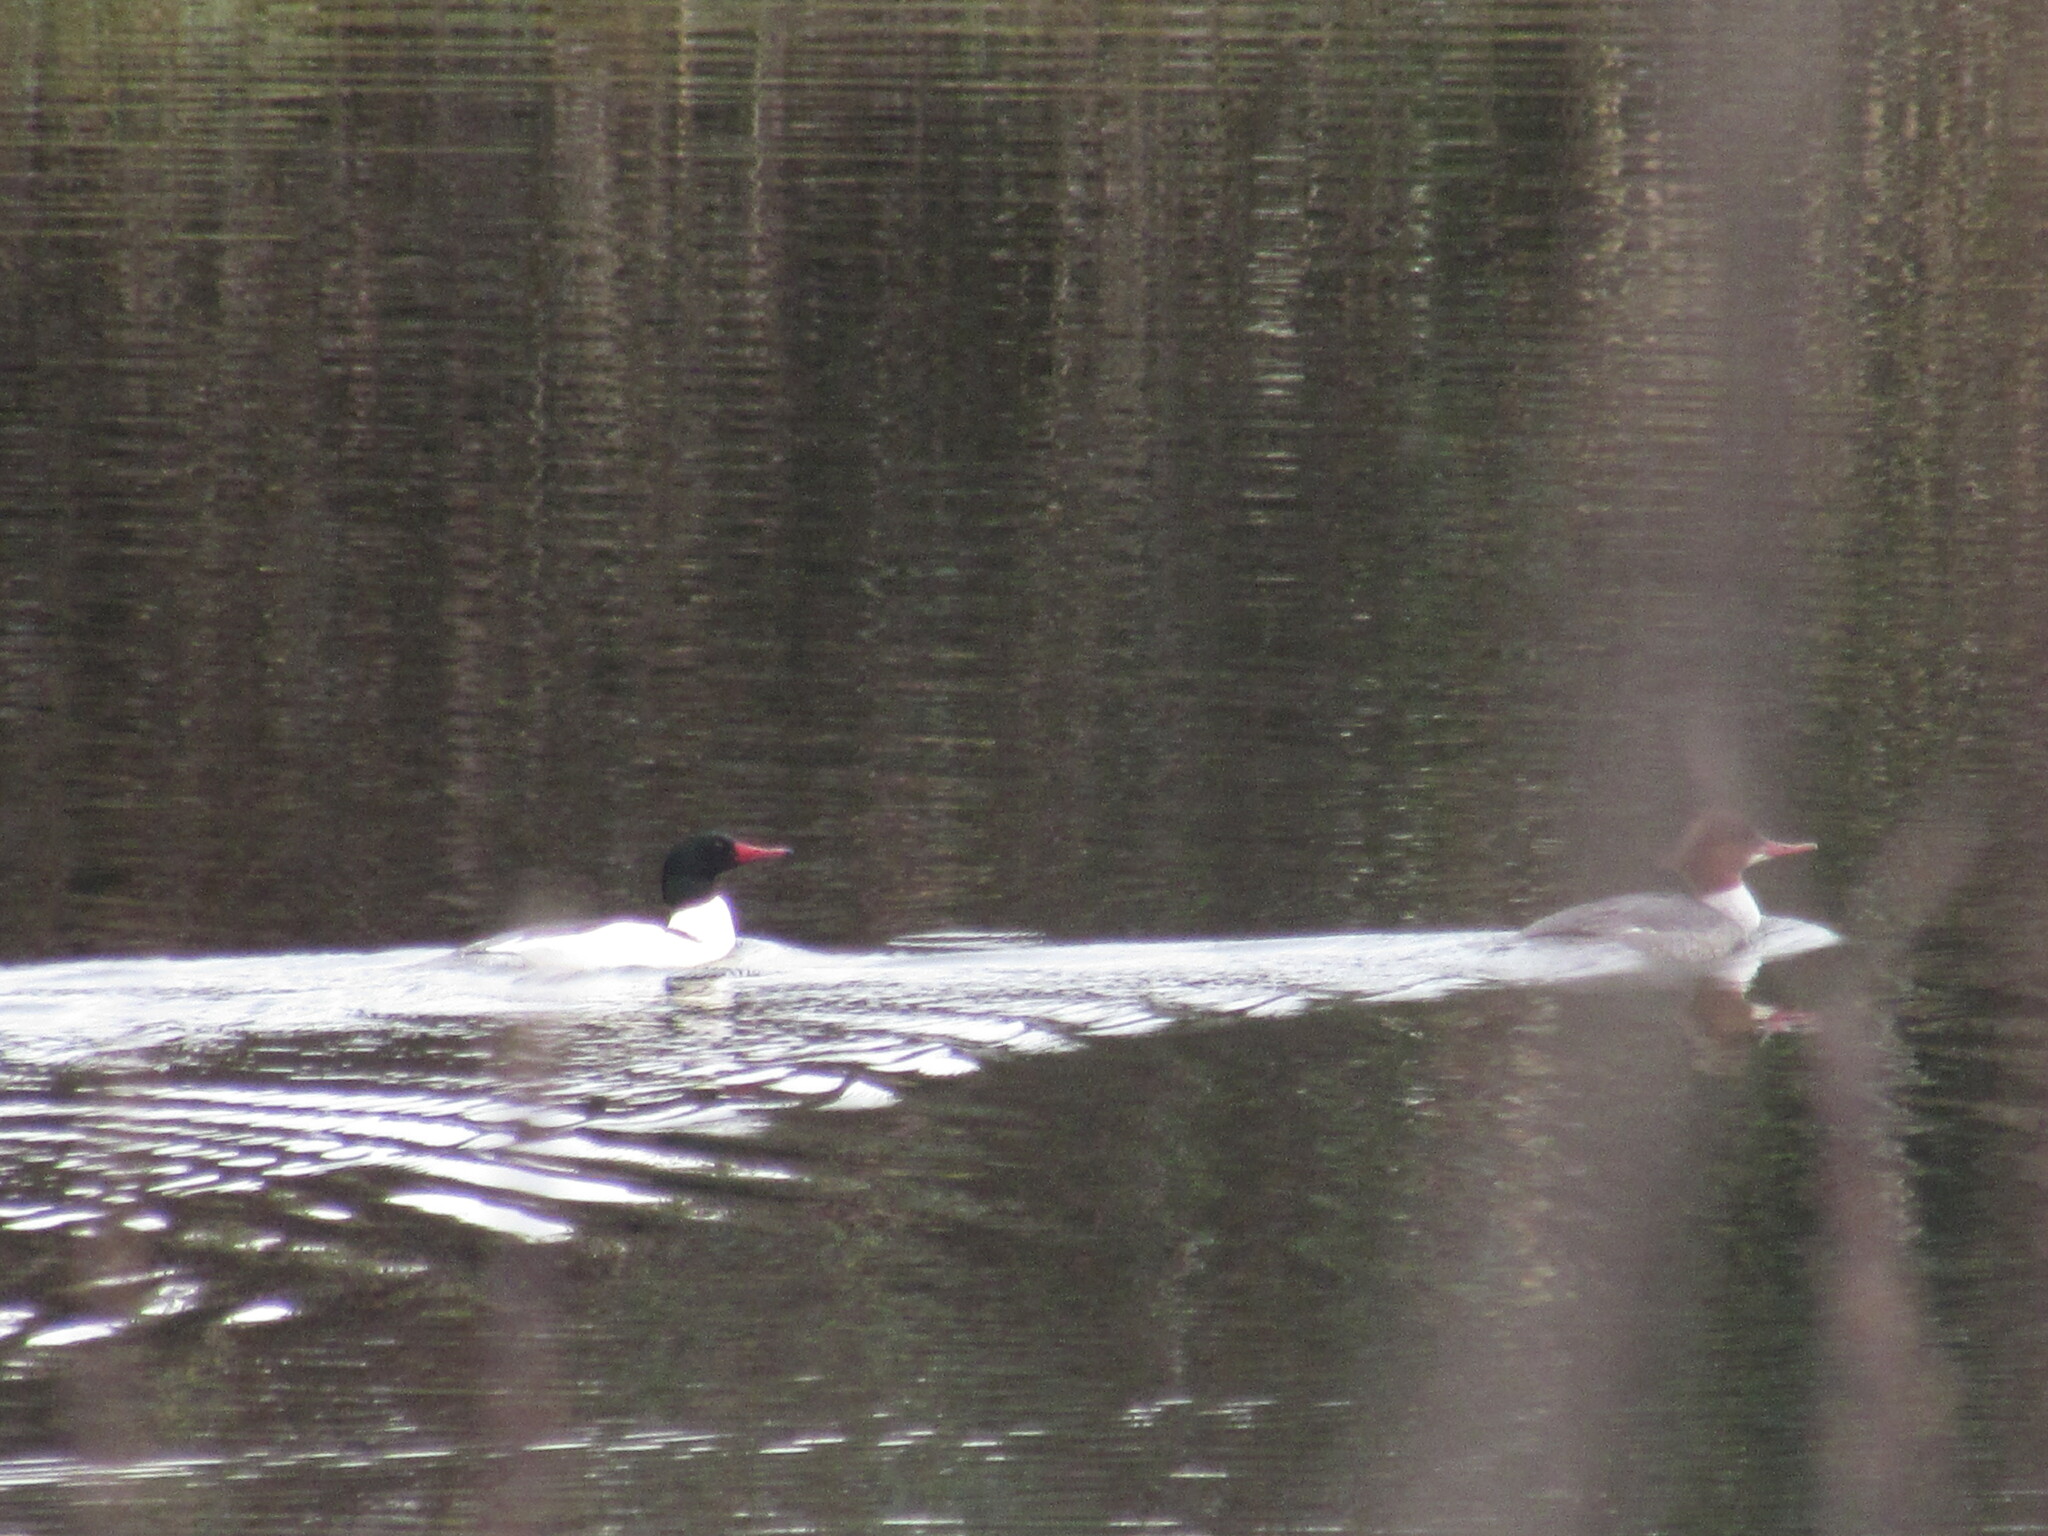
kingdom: Animalia
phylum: Chordata
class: Aves
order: Anseriformes
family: Anatidae
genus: Mergus
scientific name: Mergus merganser
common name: Common merganser
